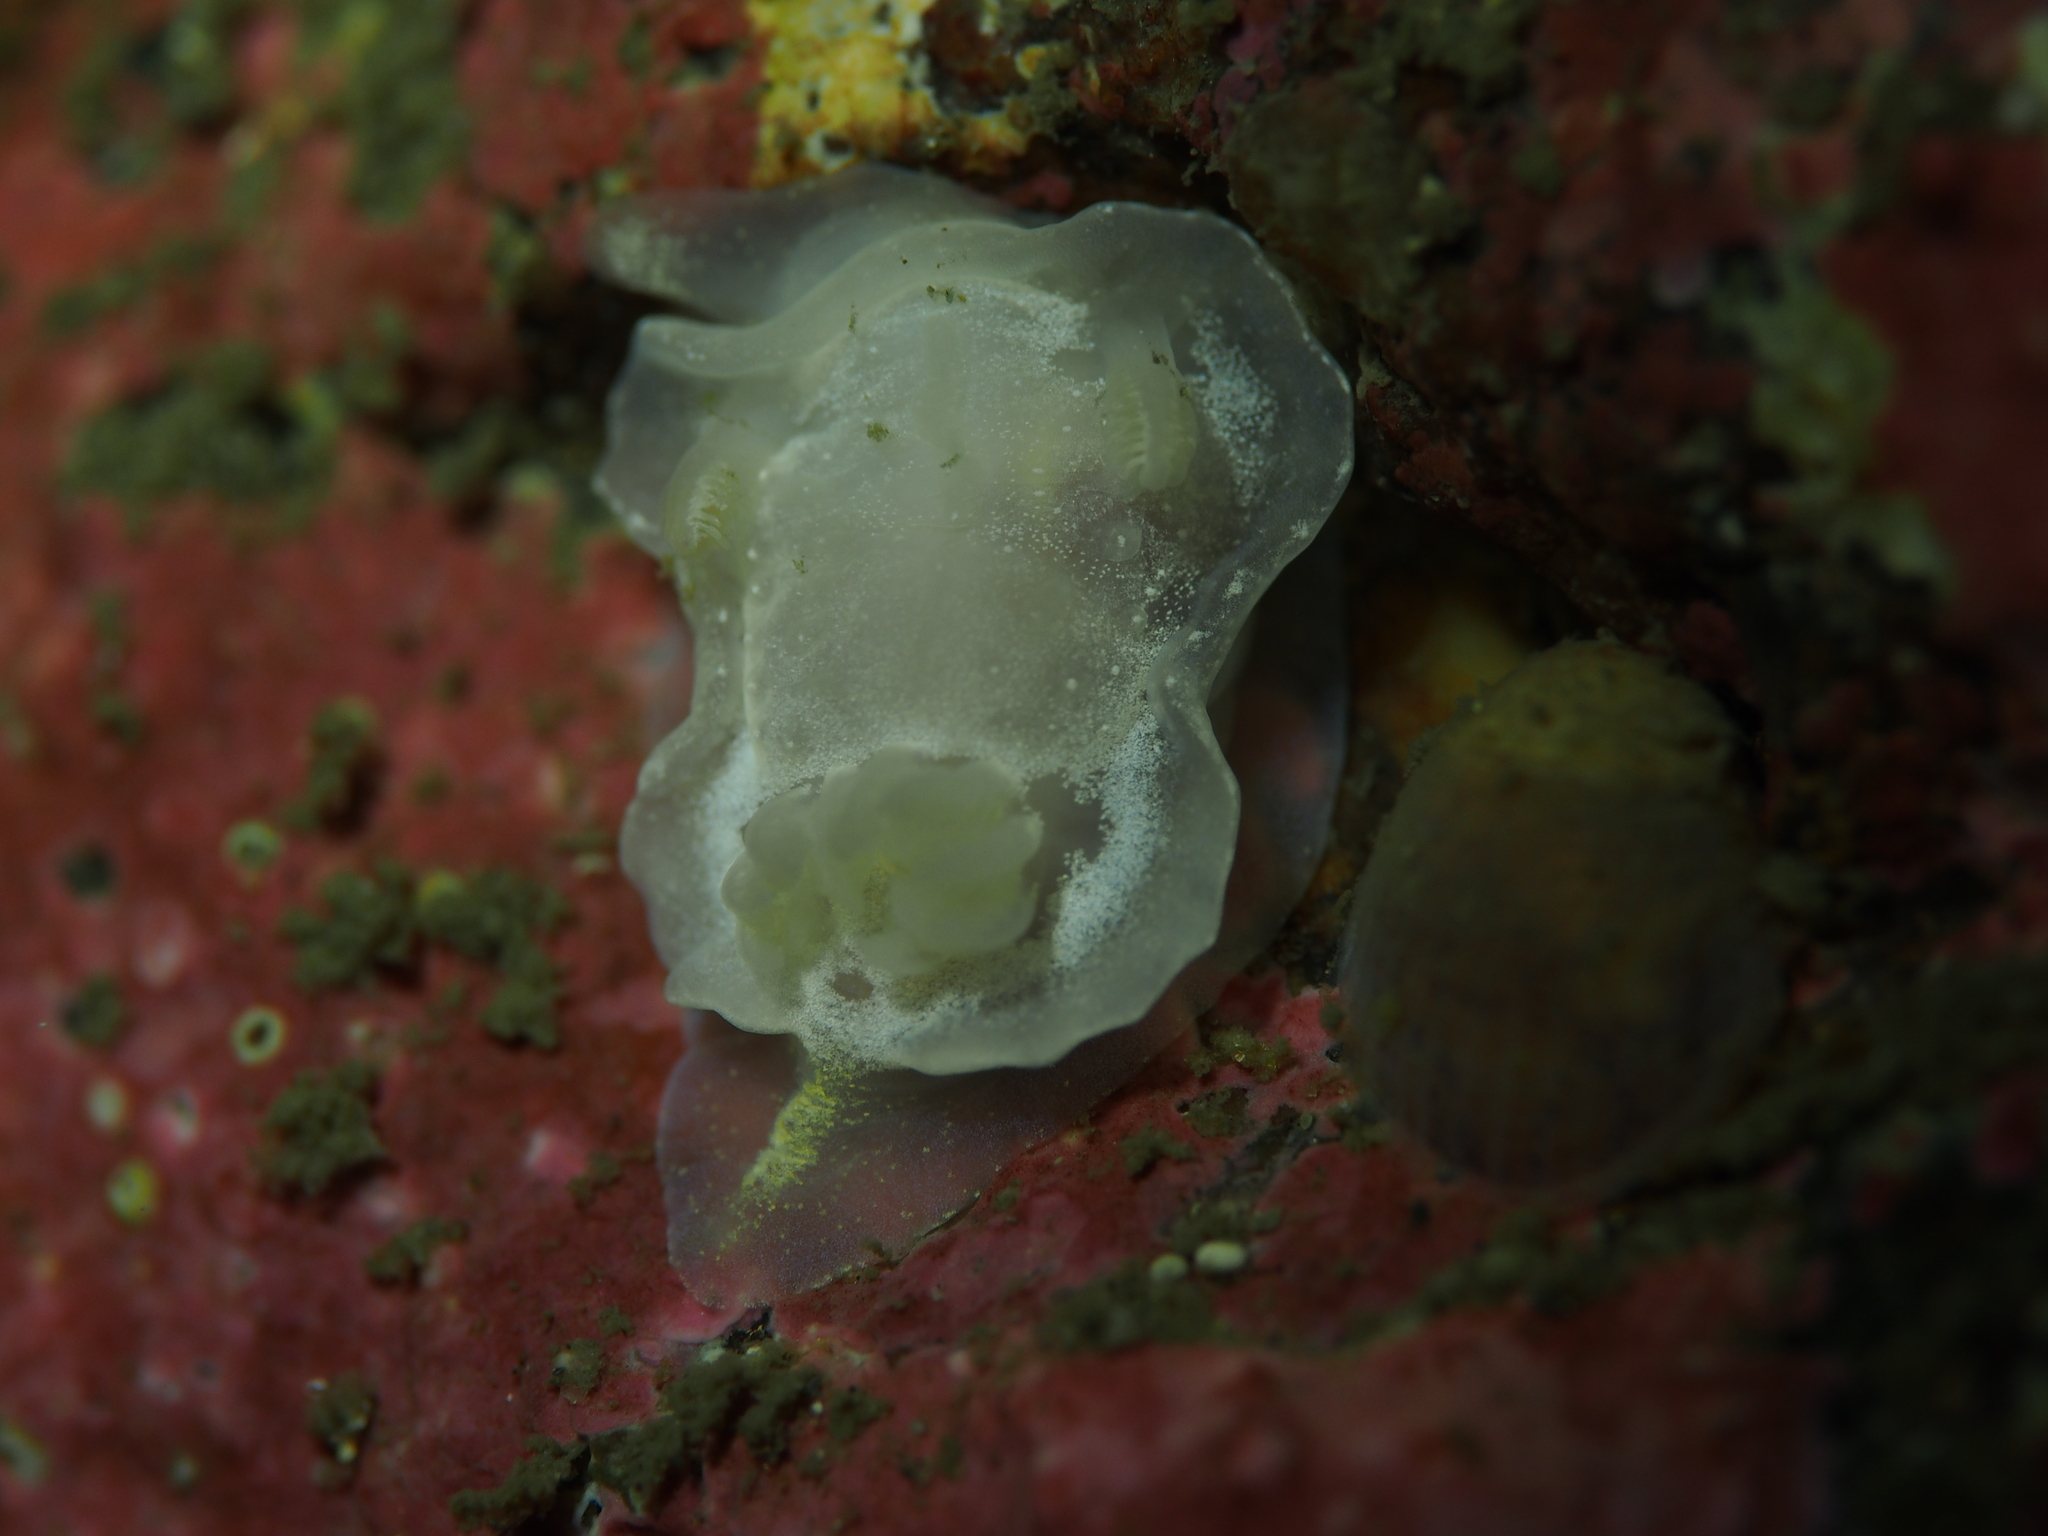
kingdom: Animalia
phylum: Mollusca
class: Gastropoda
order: Nudibranchia
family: Goniodorididae
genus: Okenia
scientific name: Okenia
